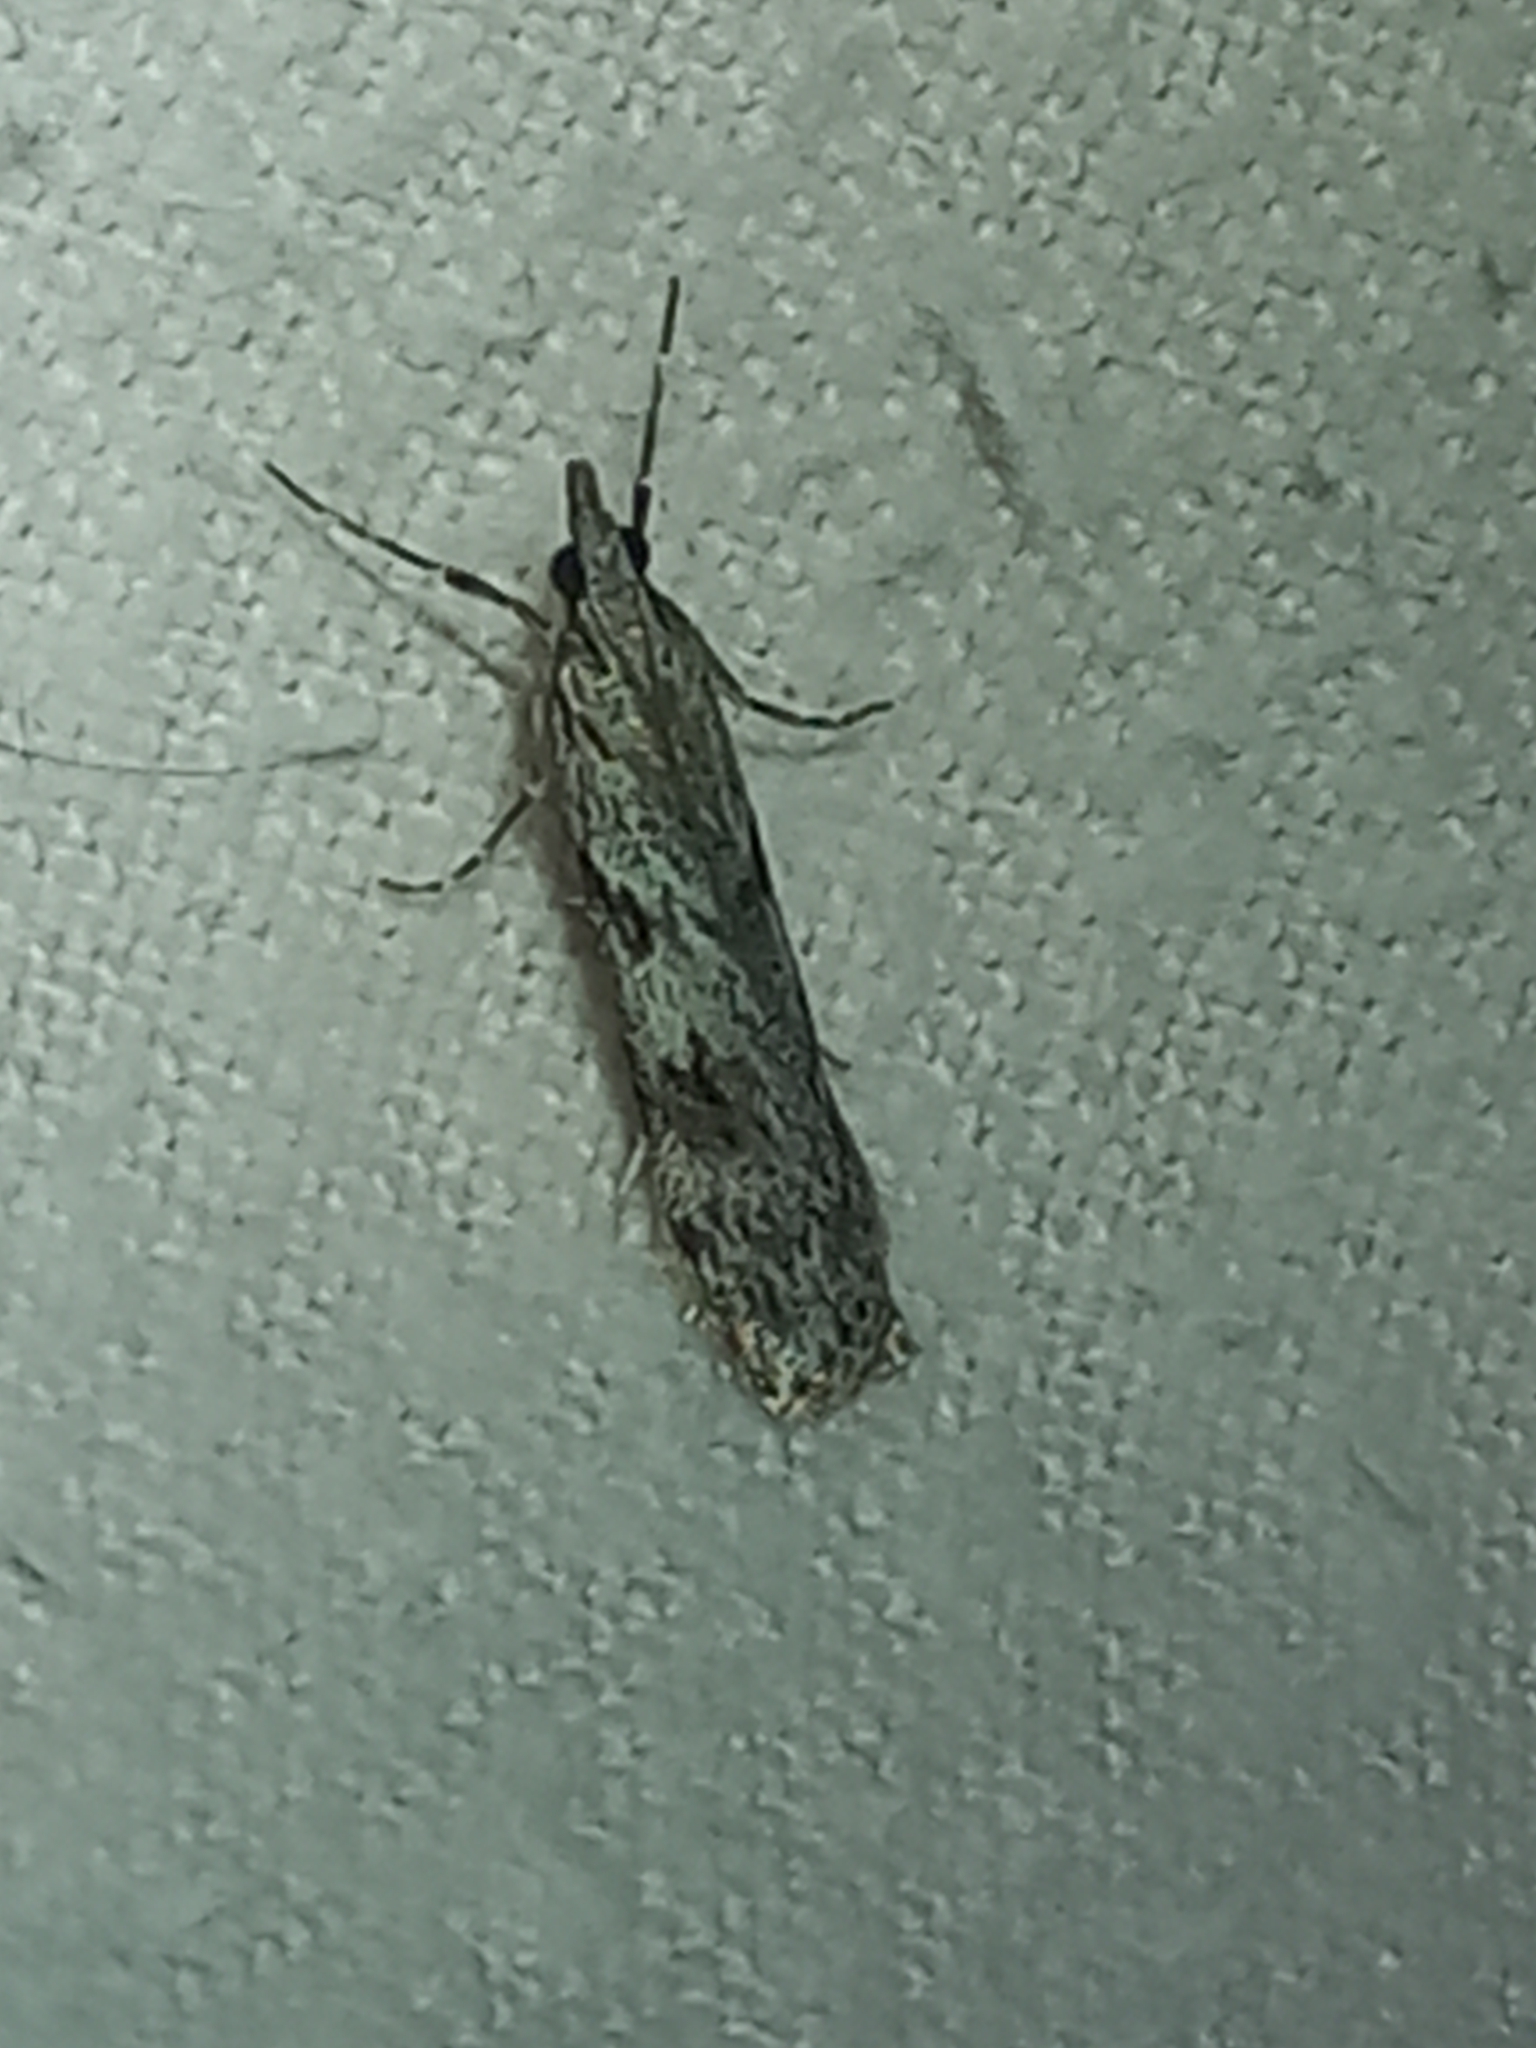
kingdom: Animalia
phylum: Arthropoda
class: Insecta
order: Lepidoptera
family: Crambidae
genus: Scoparia
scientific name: Scoparia halopis
